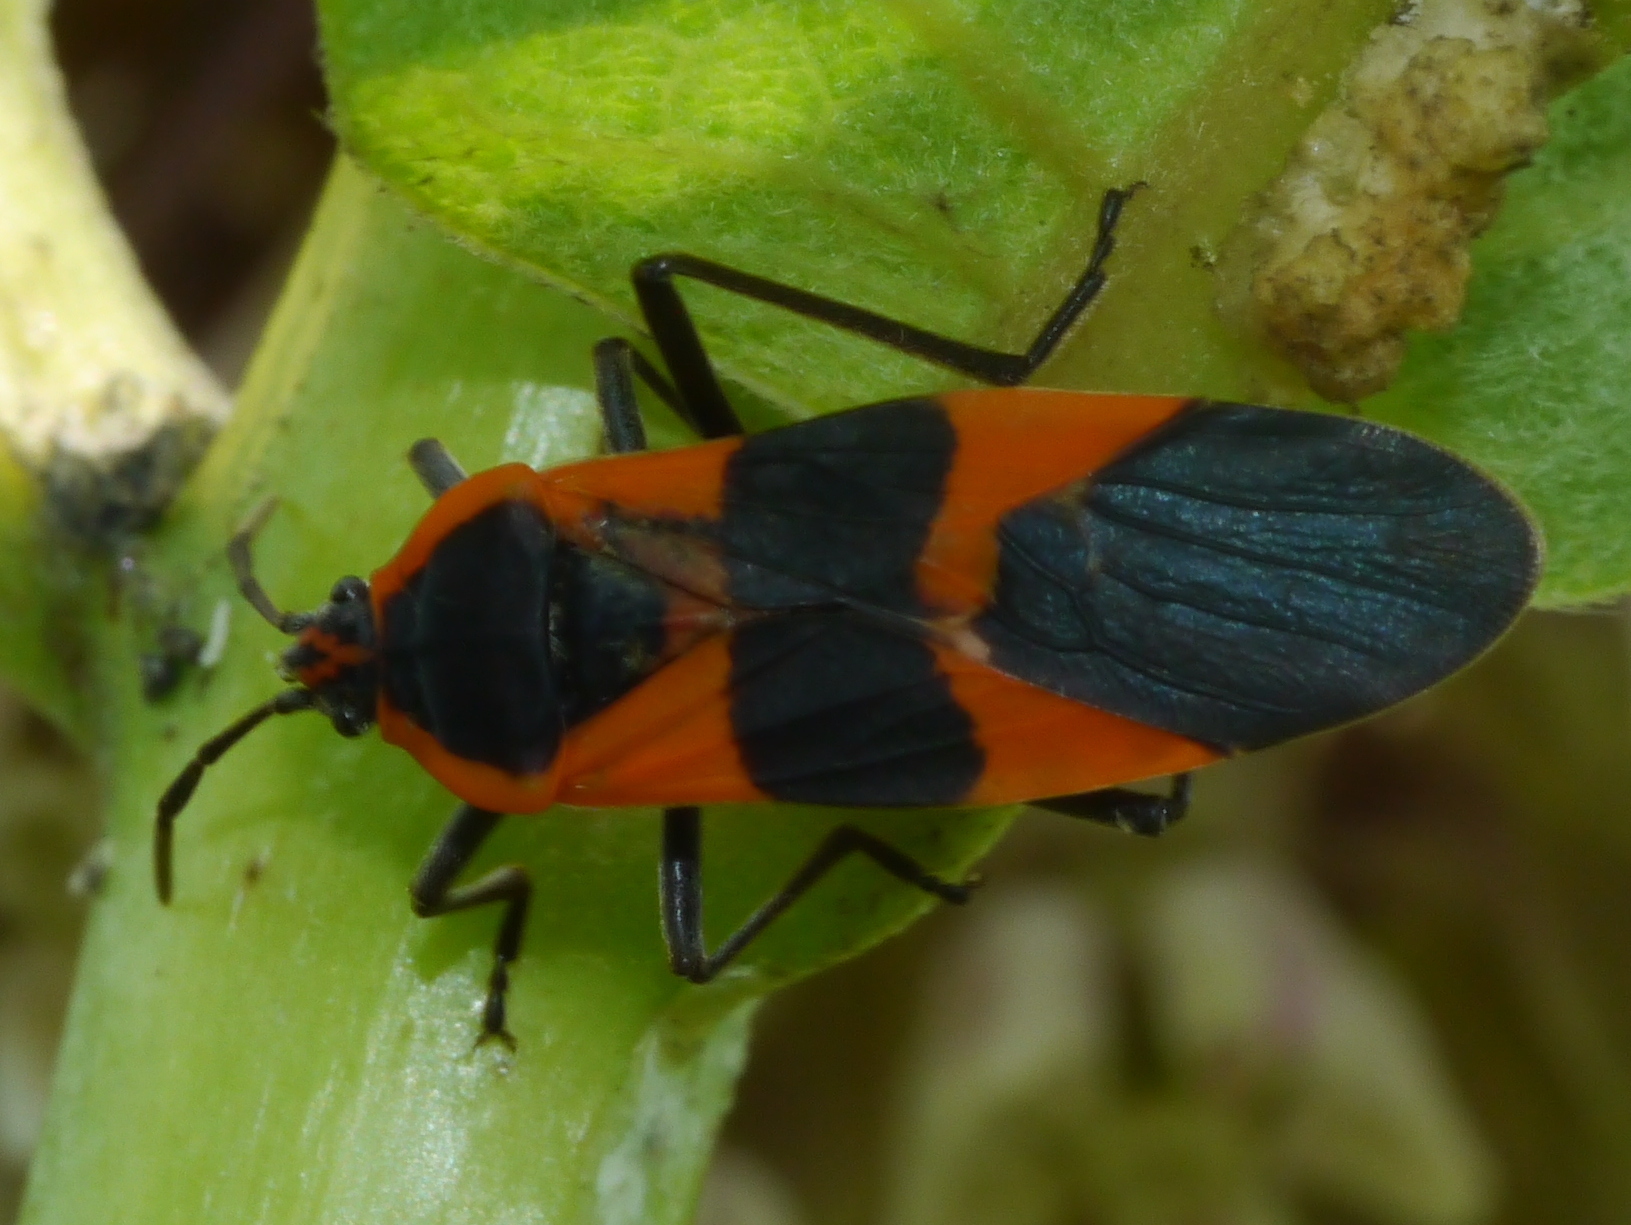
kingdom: Animalia
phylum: Arthropoda
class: Insecta
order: Hemiptera
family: Lygaeidae
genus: Oncopeltus
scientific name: Oncopeltus fasciatus
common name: Large milkweed bug
